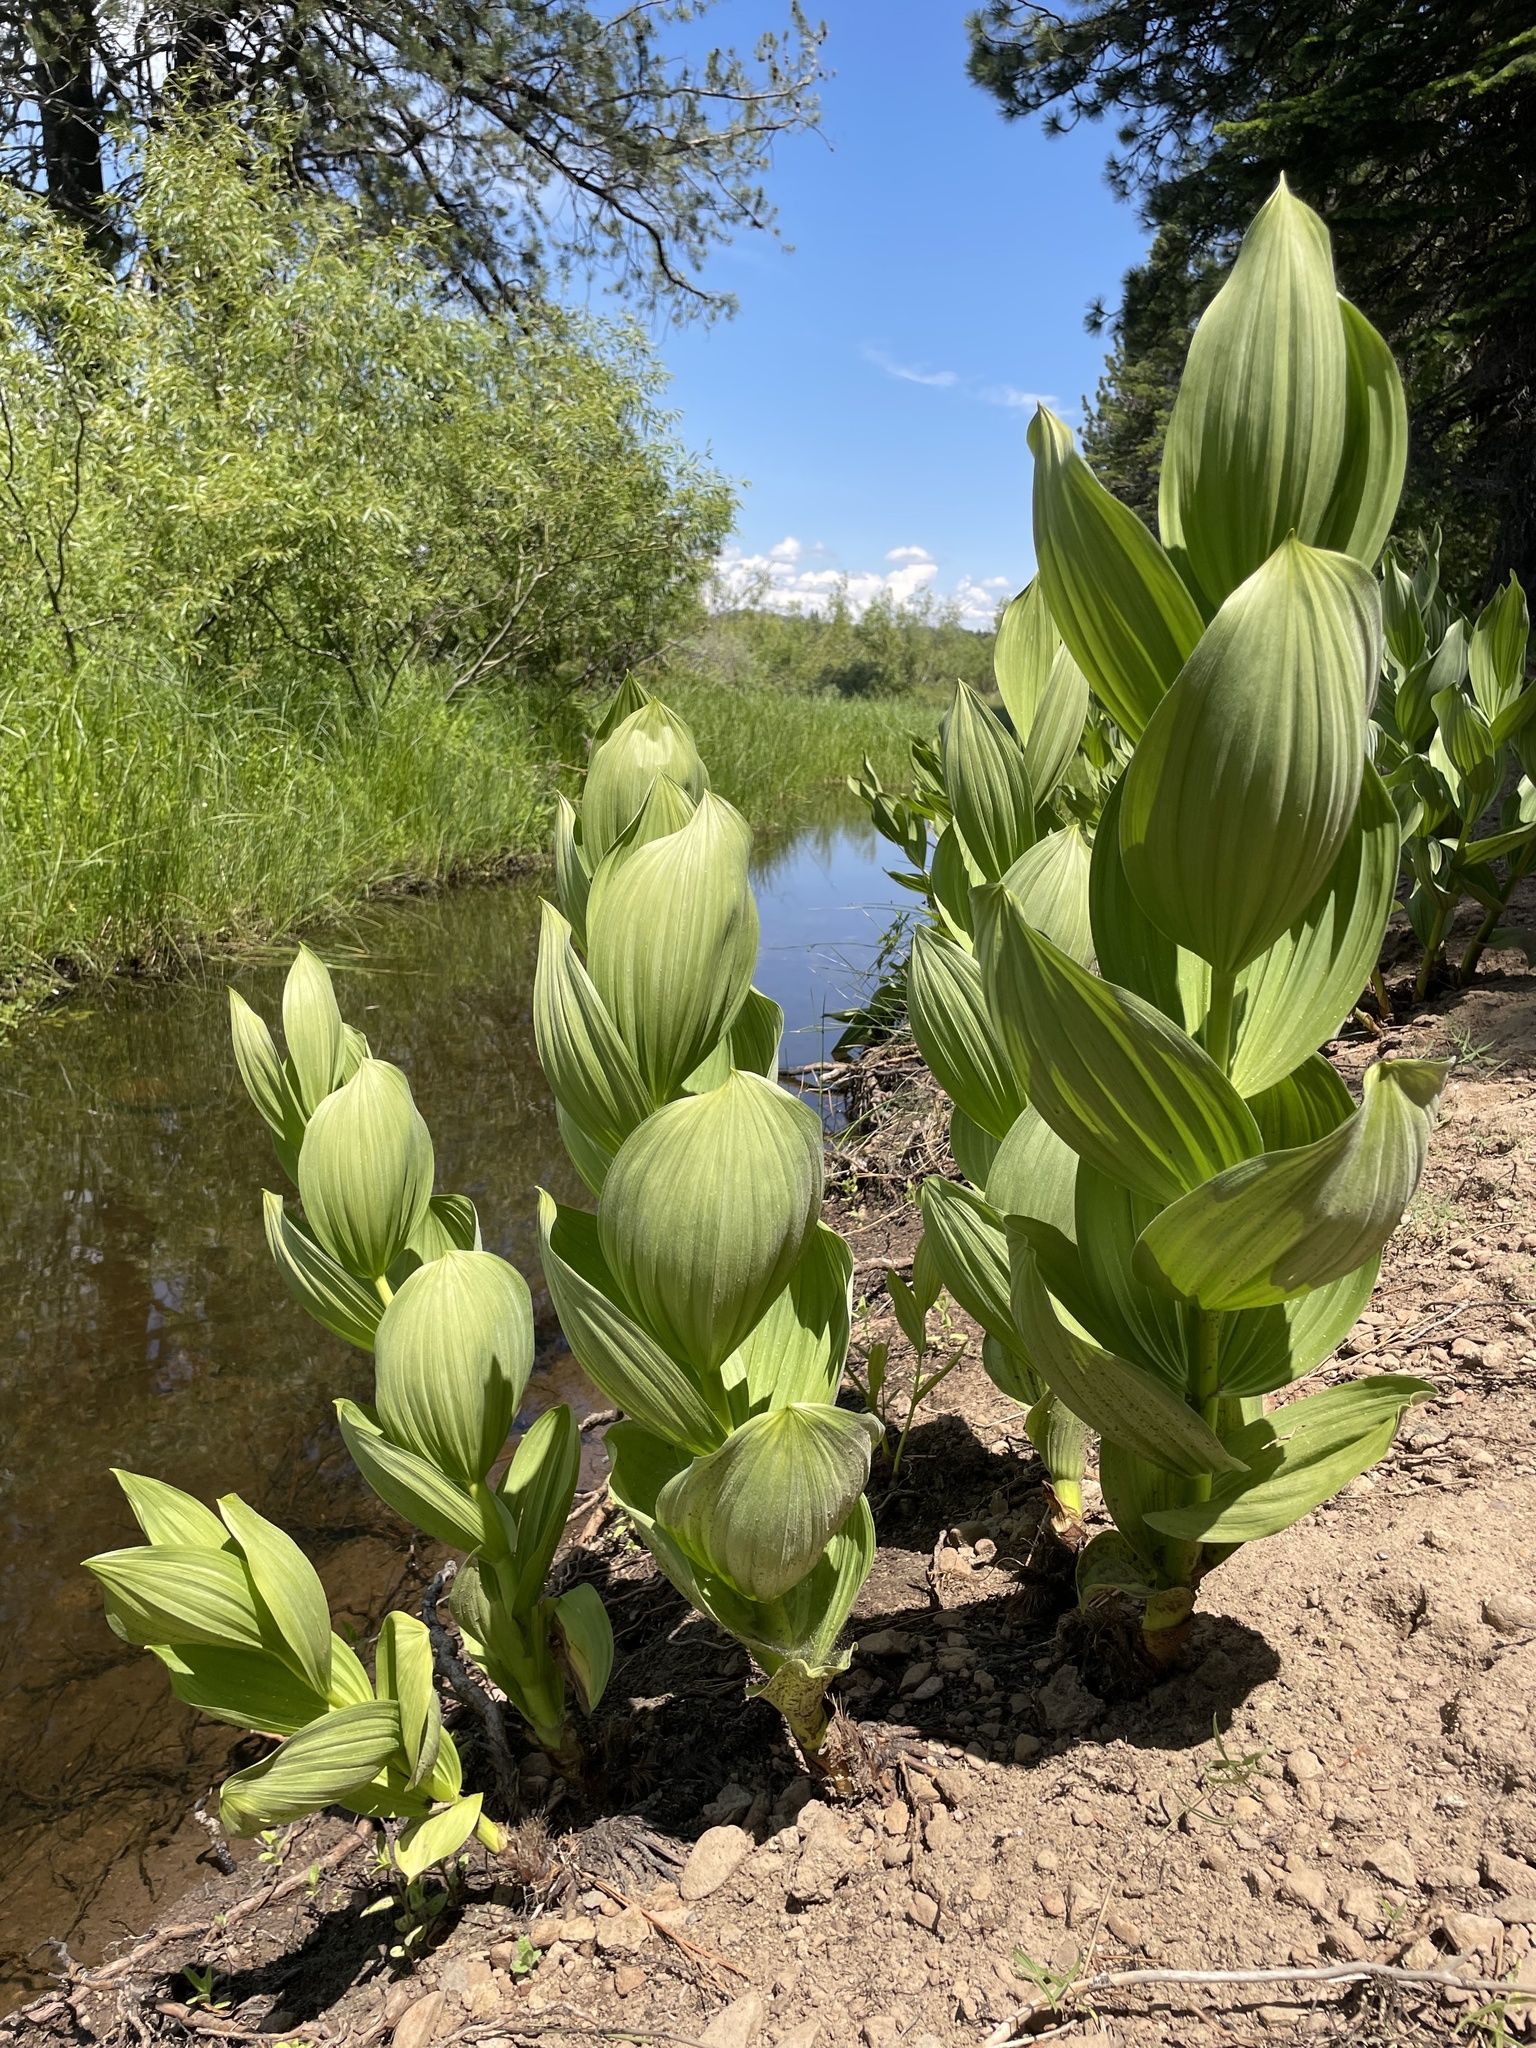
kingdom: Plantae
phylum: Tracheophyta
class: Liliopsida
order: Liliales
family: Melanthiaceae
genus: Veratrum
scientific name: Veratrum californicum
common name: California veratrum
